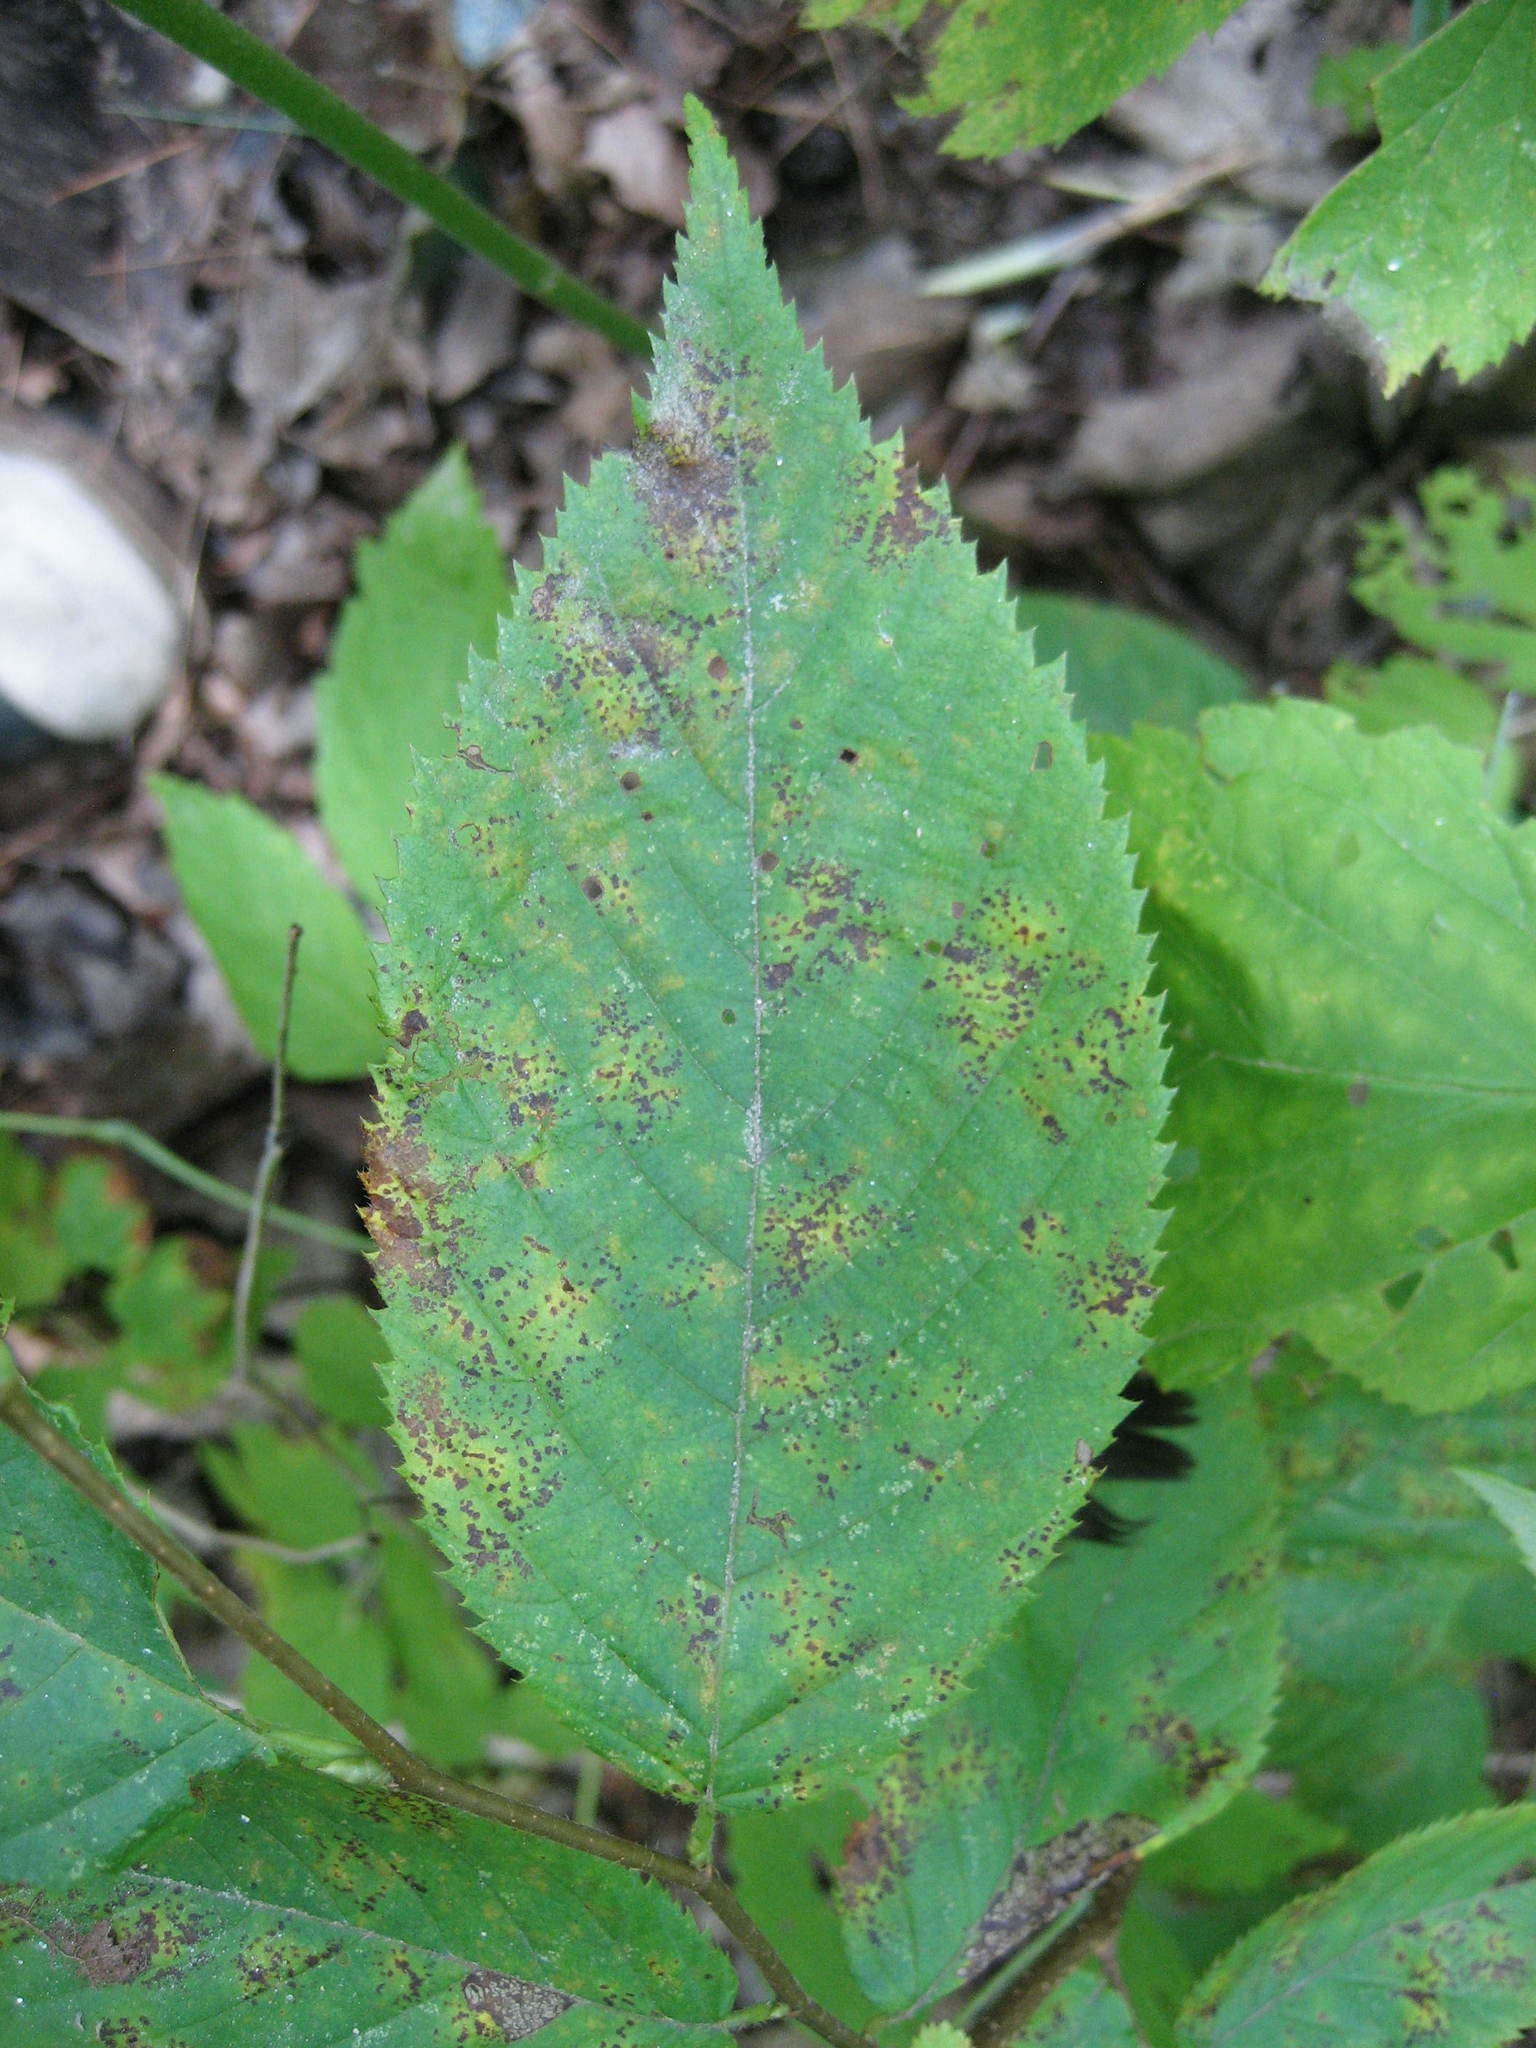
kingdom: Plantae
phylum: Tracheophyta
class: Magnoliopsida
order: Fagales
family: Betulaceae
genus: Ostrya
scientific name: Ostrya virginiana
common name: Ironwood
